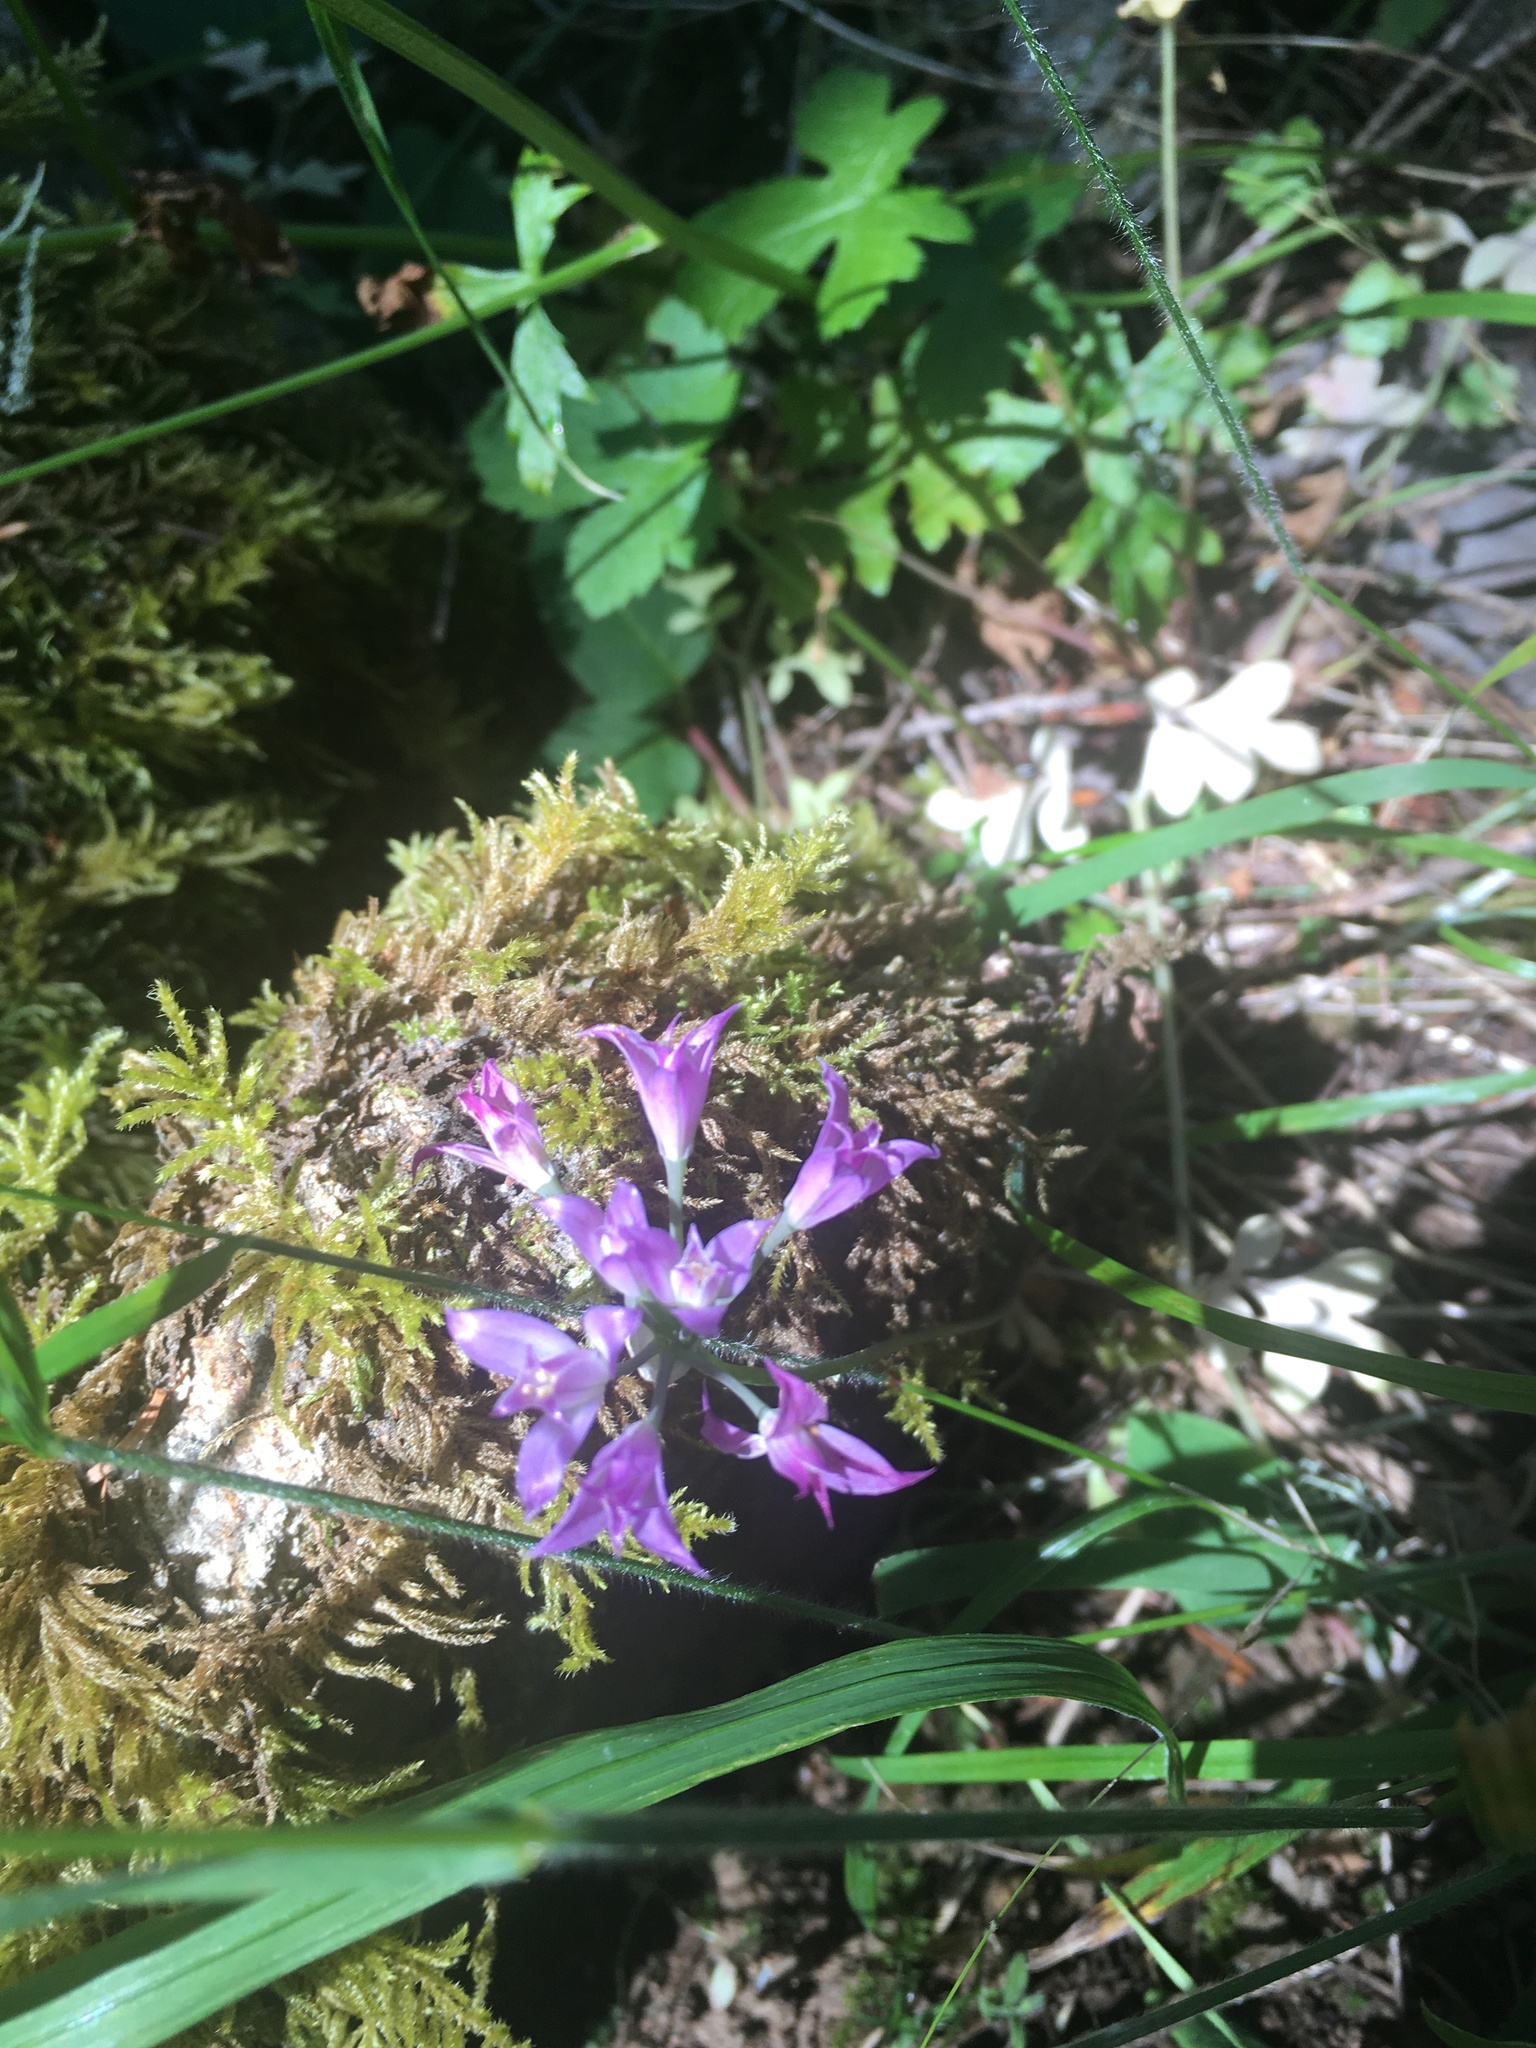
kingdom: Plantae
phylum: Tracheophyta
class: Liliopsida
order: Asparagales
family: Amaryllidaceae
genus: Allium
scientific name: Allium acuminatum
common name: Hooker's onion
